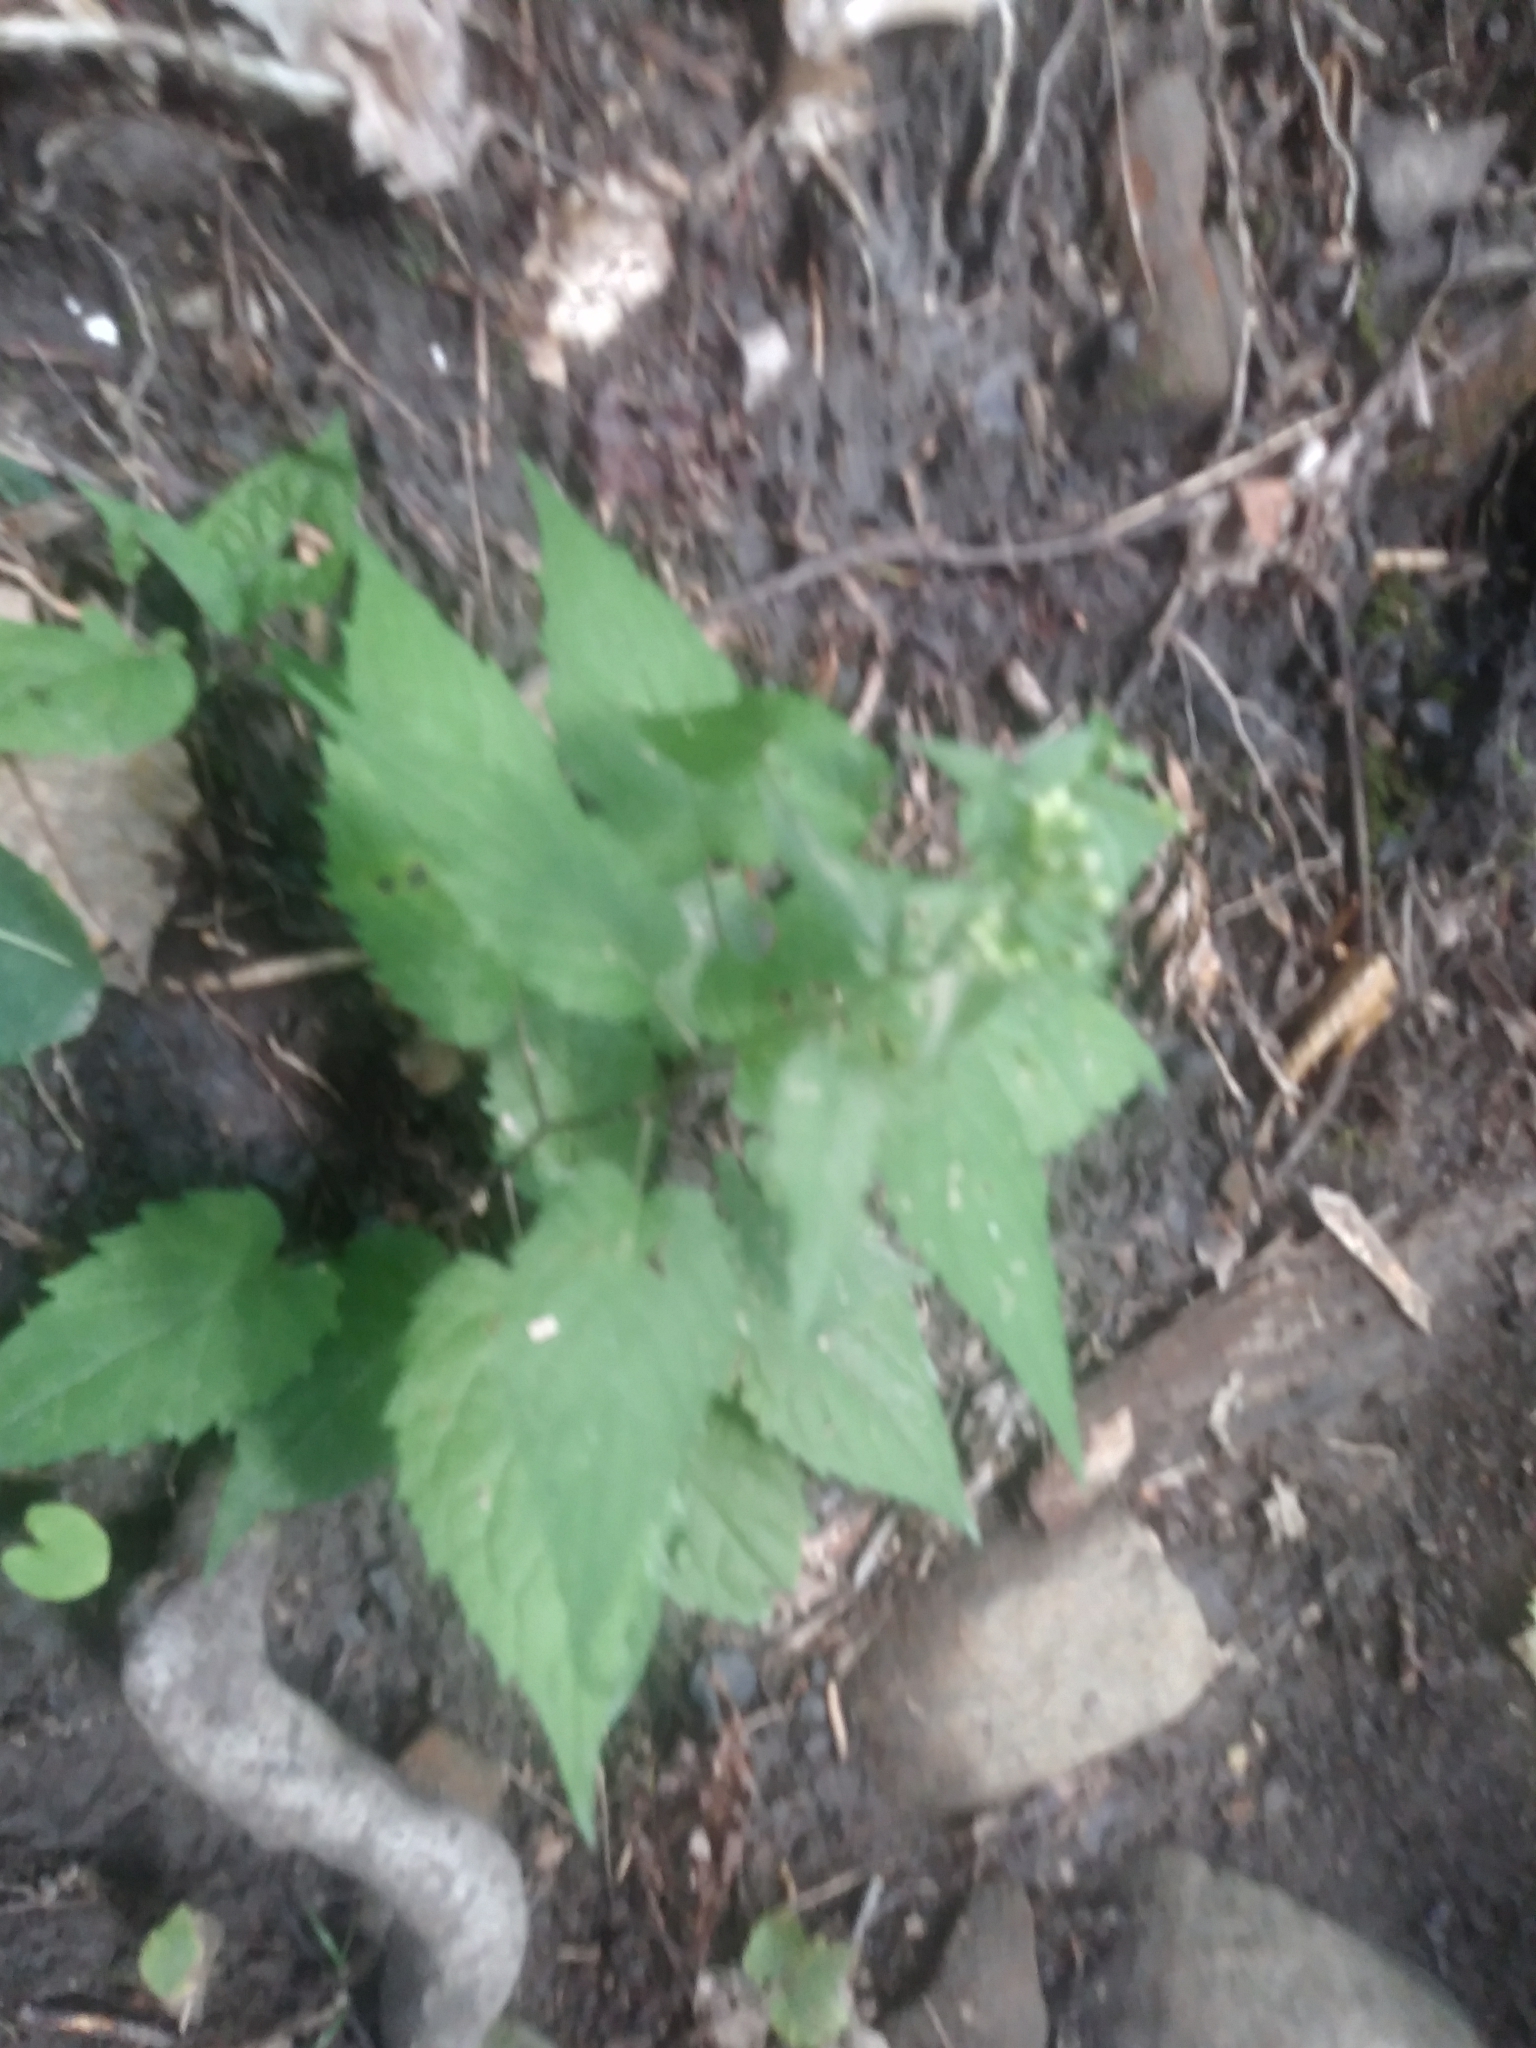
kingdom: Plantae
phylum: Tracheophyta
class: Magnoliopsida
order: Asterales
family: Asteraceae
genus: Eurybia
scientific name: Eurybia divaricata
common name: White wood aster
